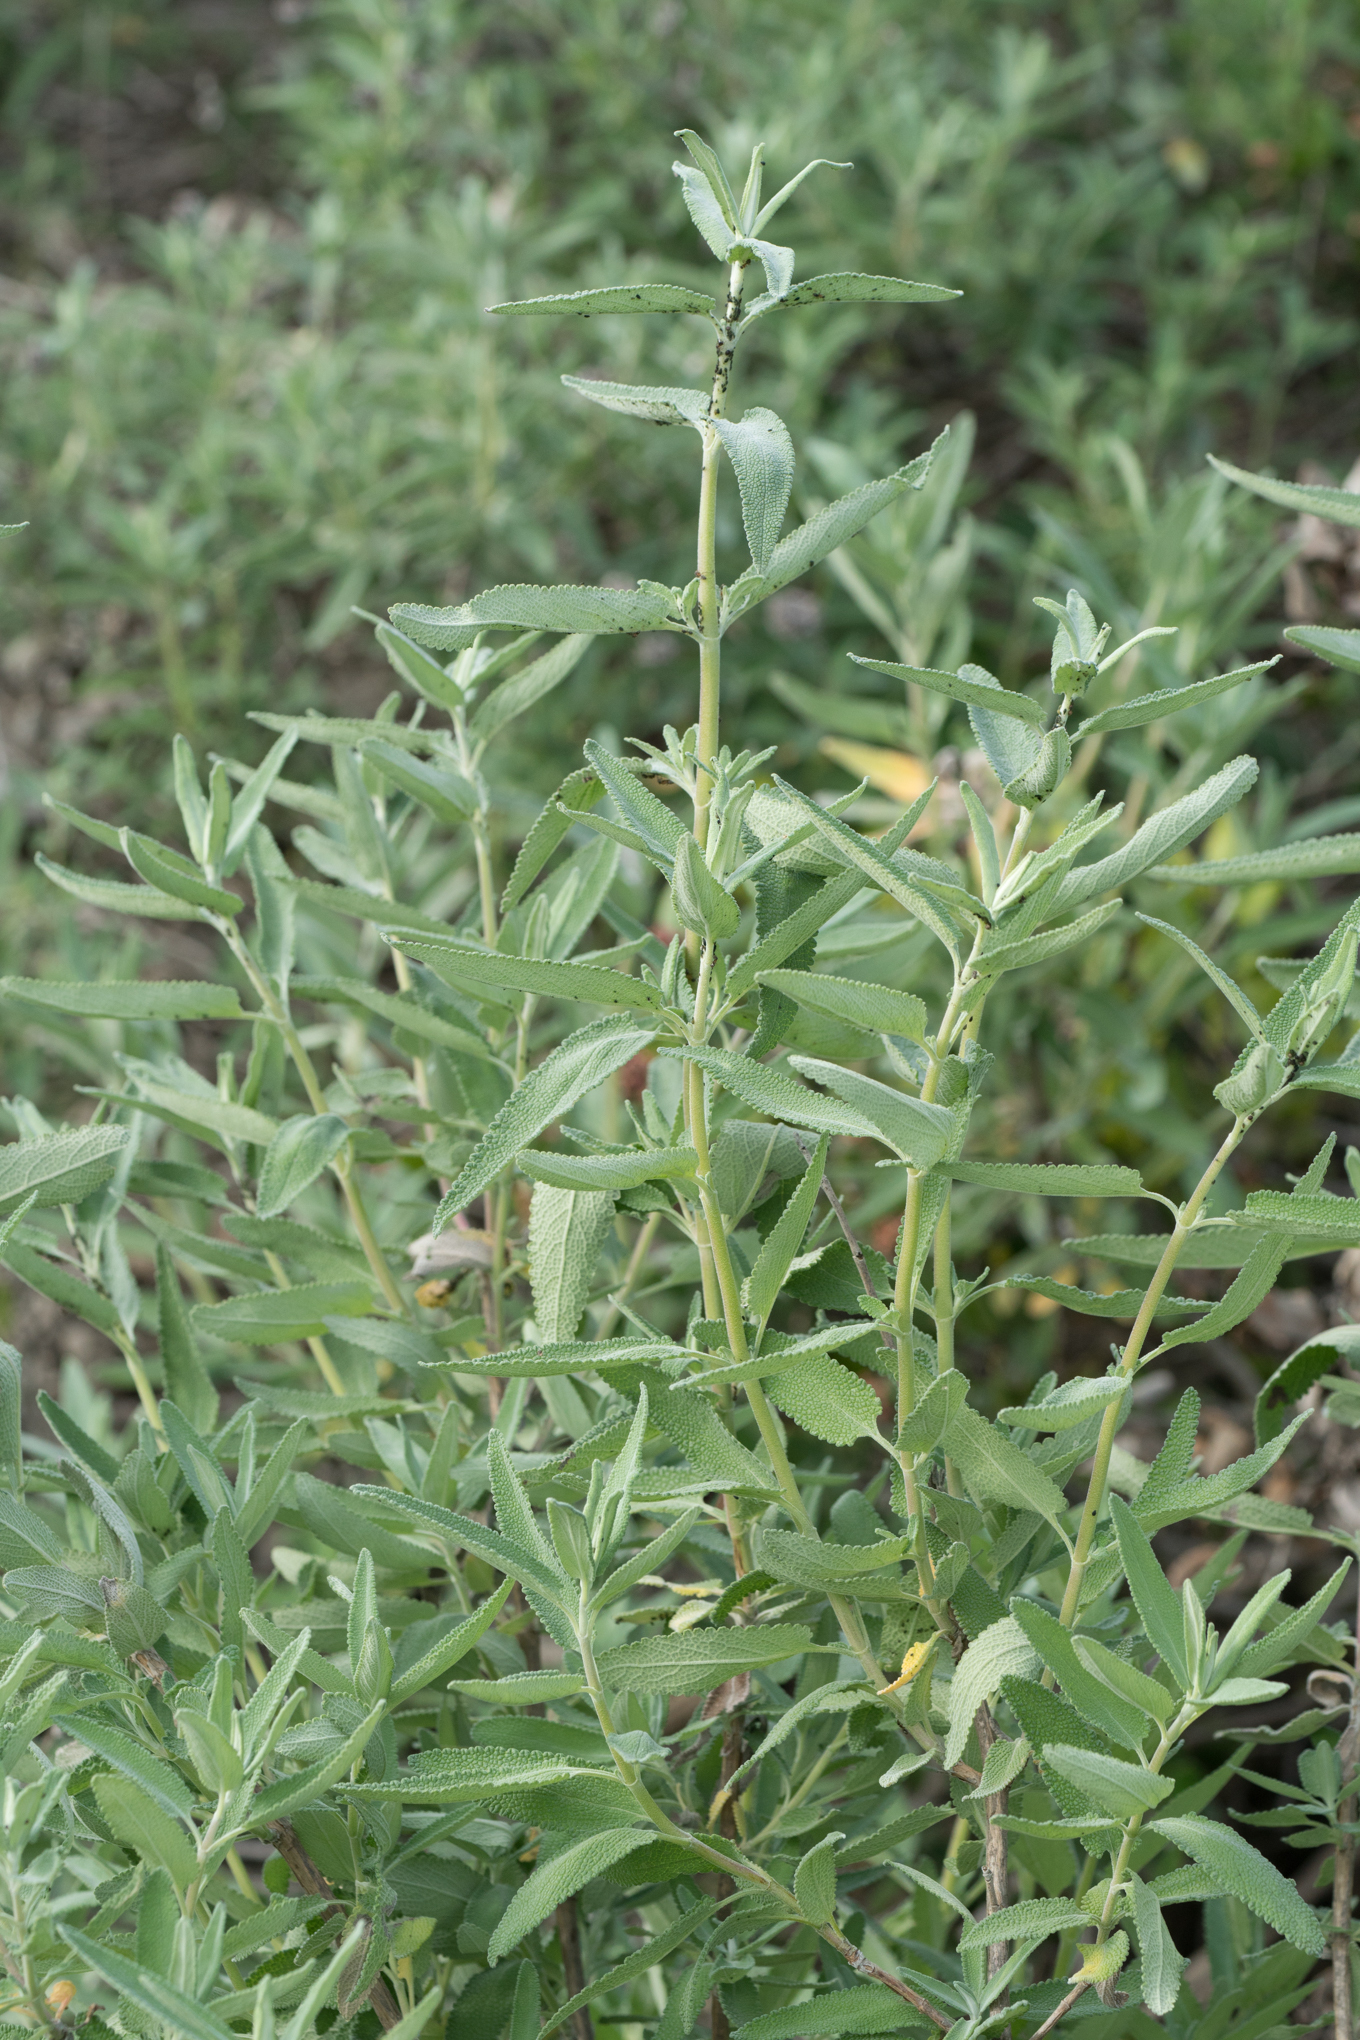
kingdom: Plantae
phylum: Tracheophyta
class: Magnoliopsida
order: Lamiales
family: Lamiaceae
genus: Salvia
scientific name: Salvia leucophylla
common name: Purple sage
